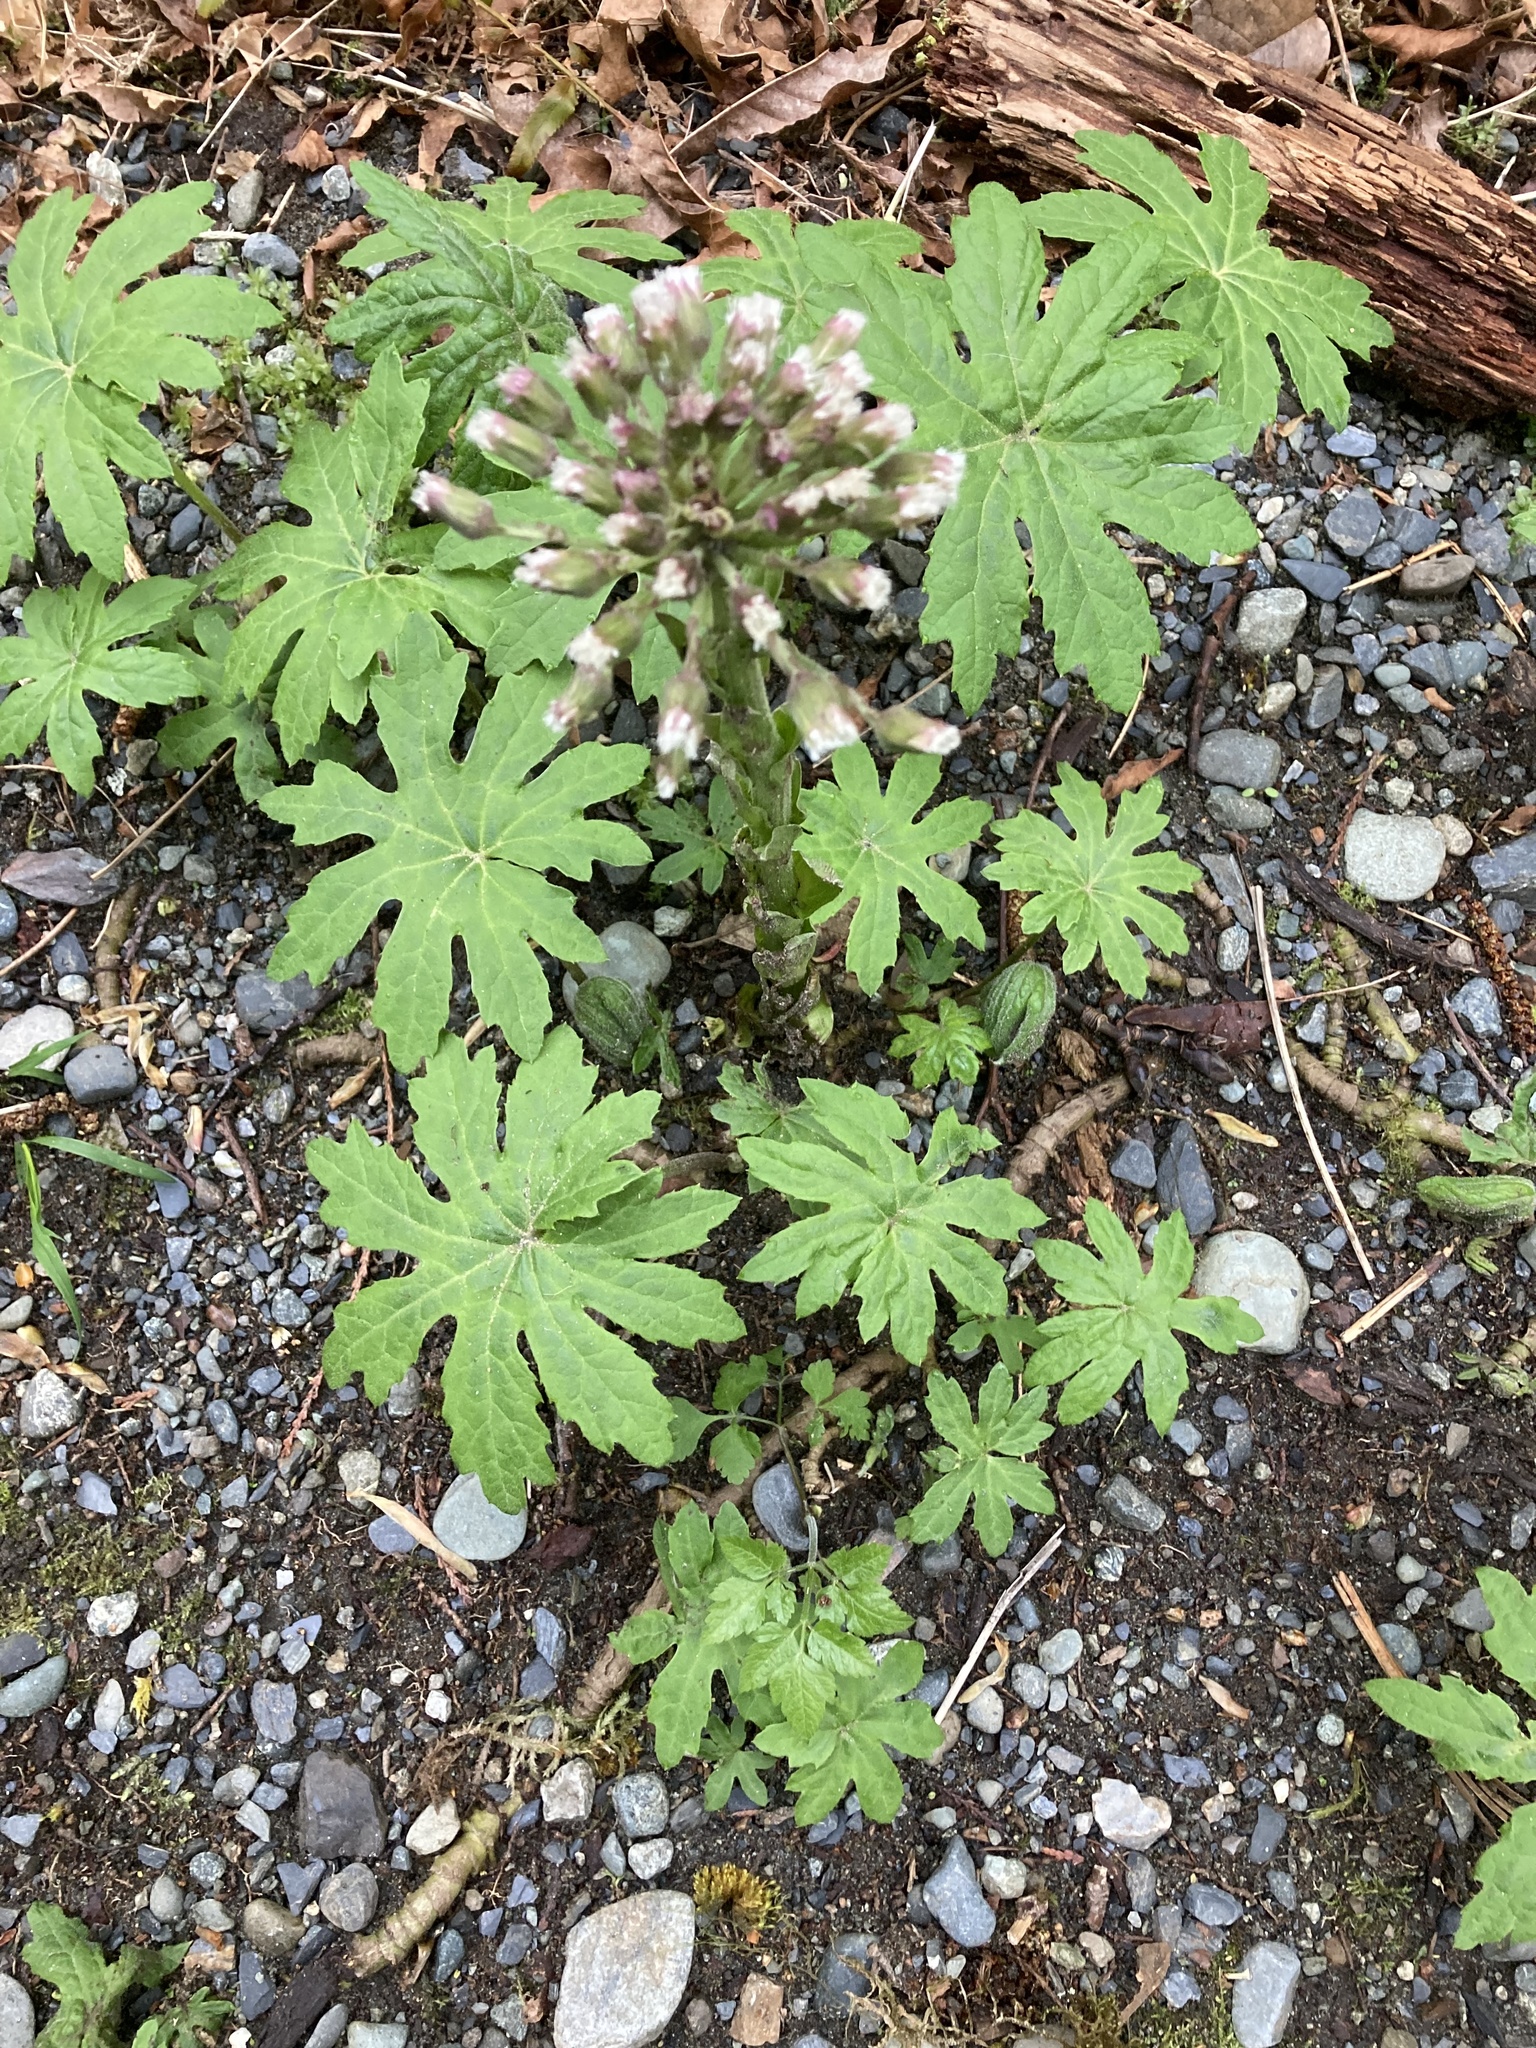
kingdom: Plantae
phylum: Tracheophyta
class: Magnoliopsida
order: Asterales
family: Asteraceae
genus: Petasites
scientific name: Petasites frigidus
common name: Arctic butterbur
